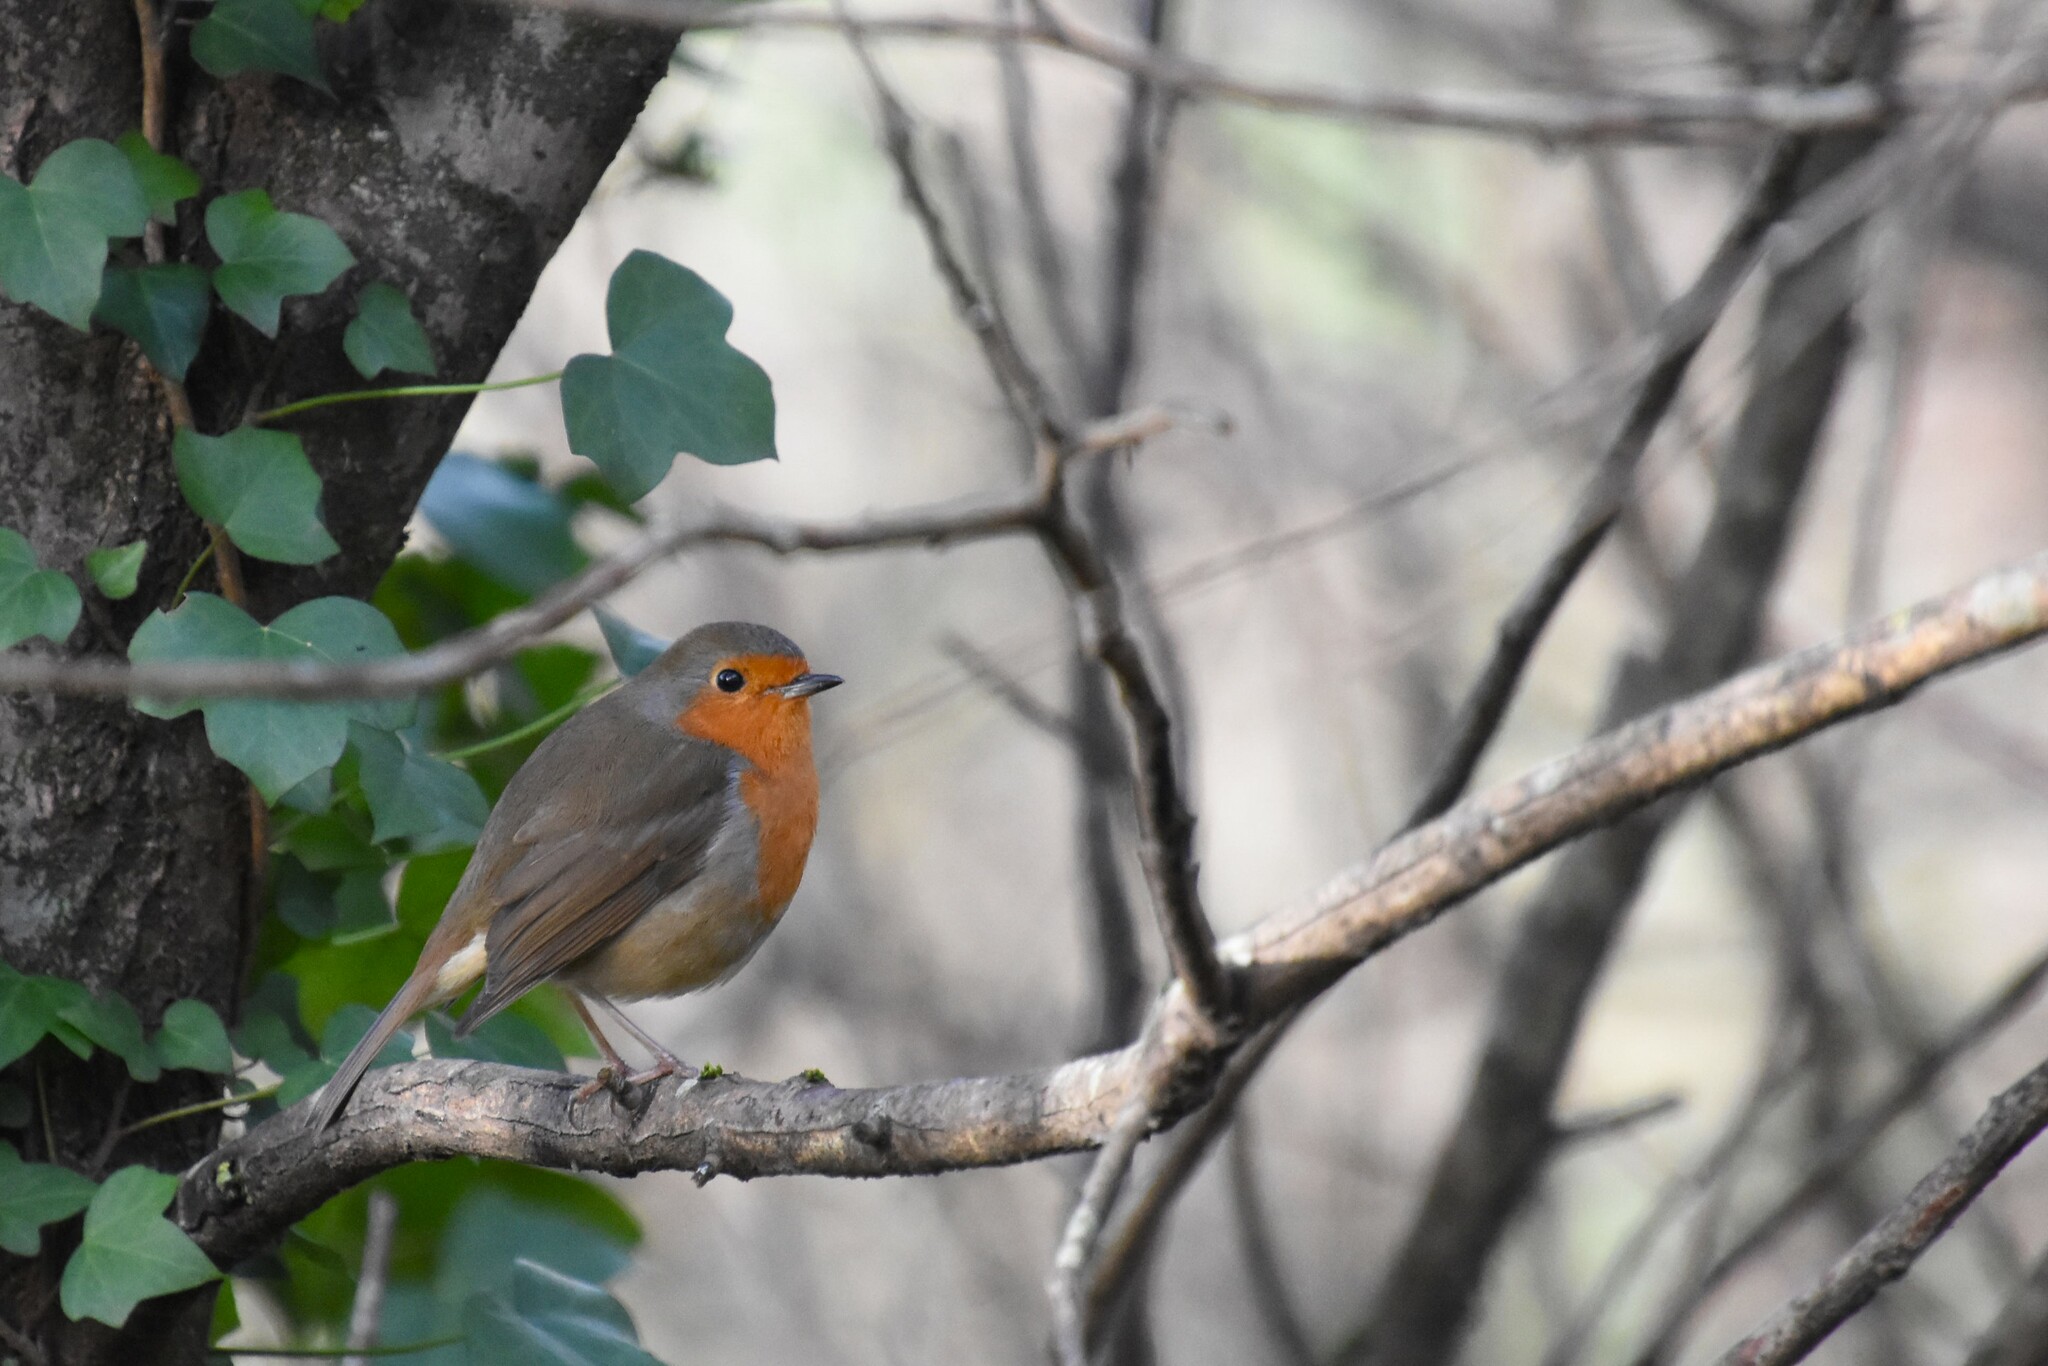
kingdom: Animalia
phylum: Chordata
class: Aves
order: Passeriformes
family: Muscicapidae
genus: Erithacus
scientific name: Erithacus rubecula
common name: European robin
